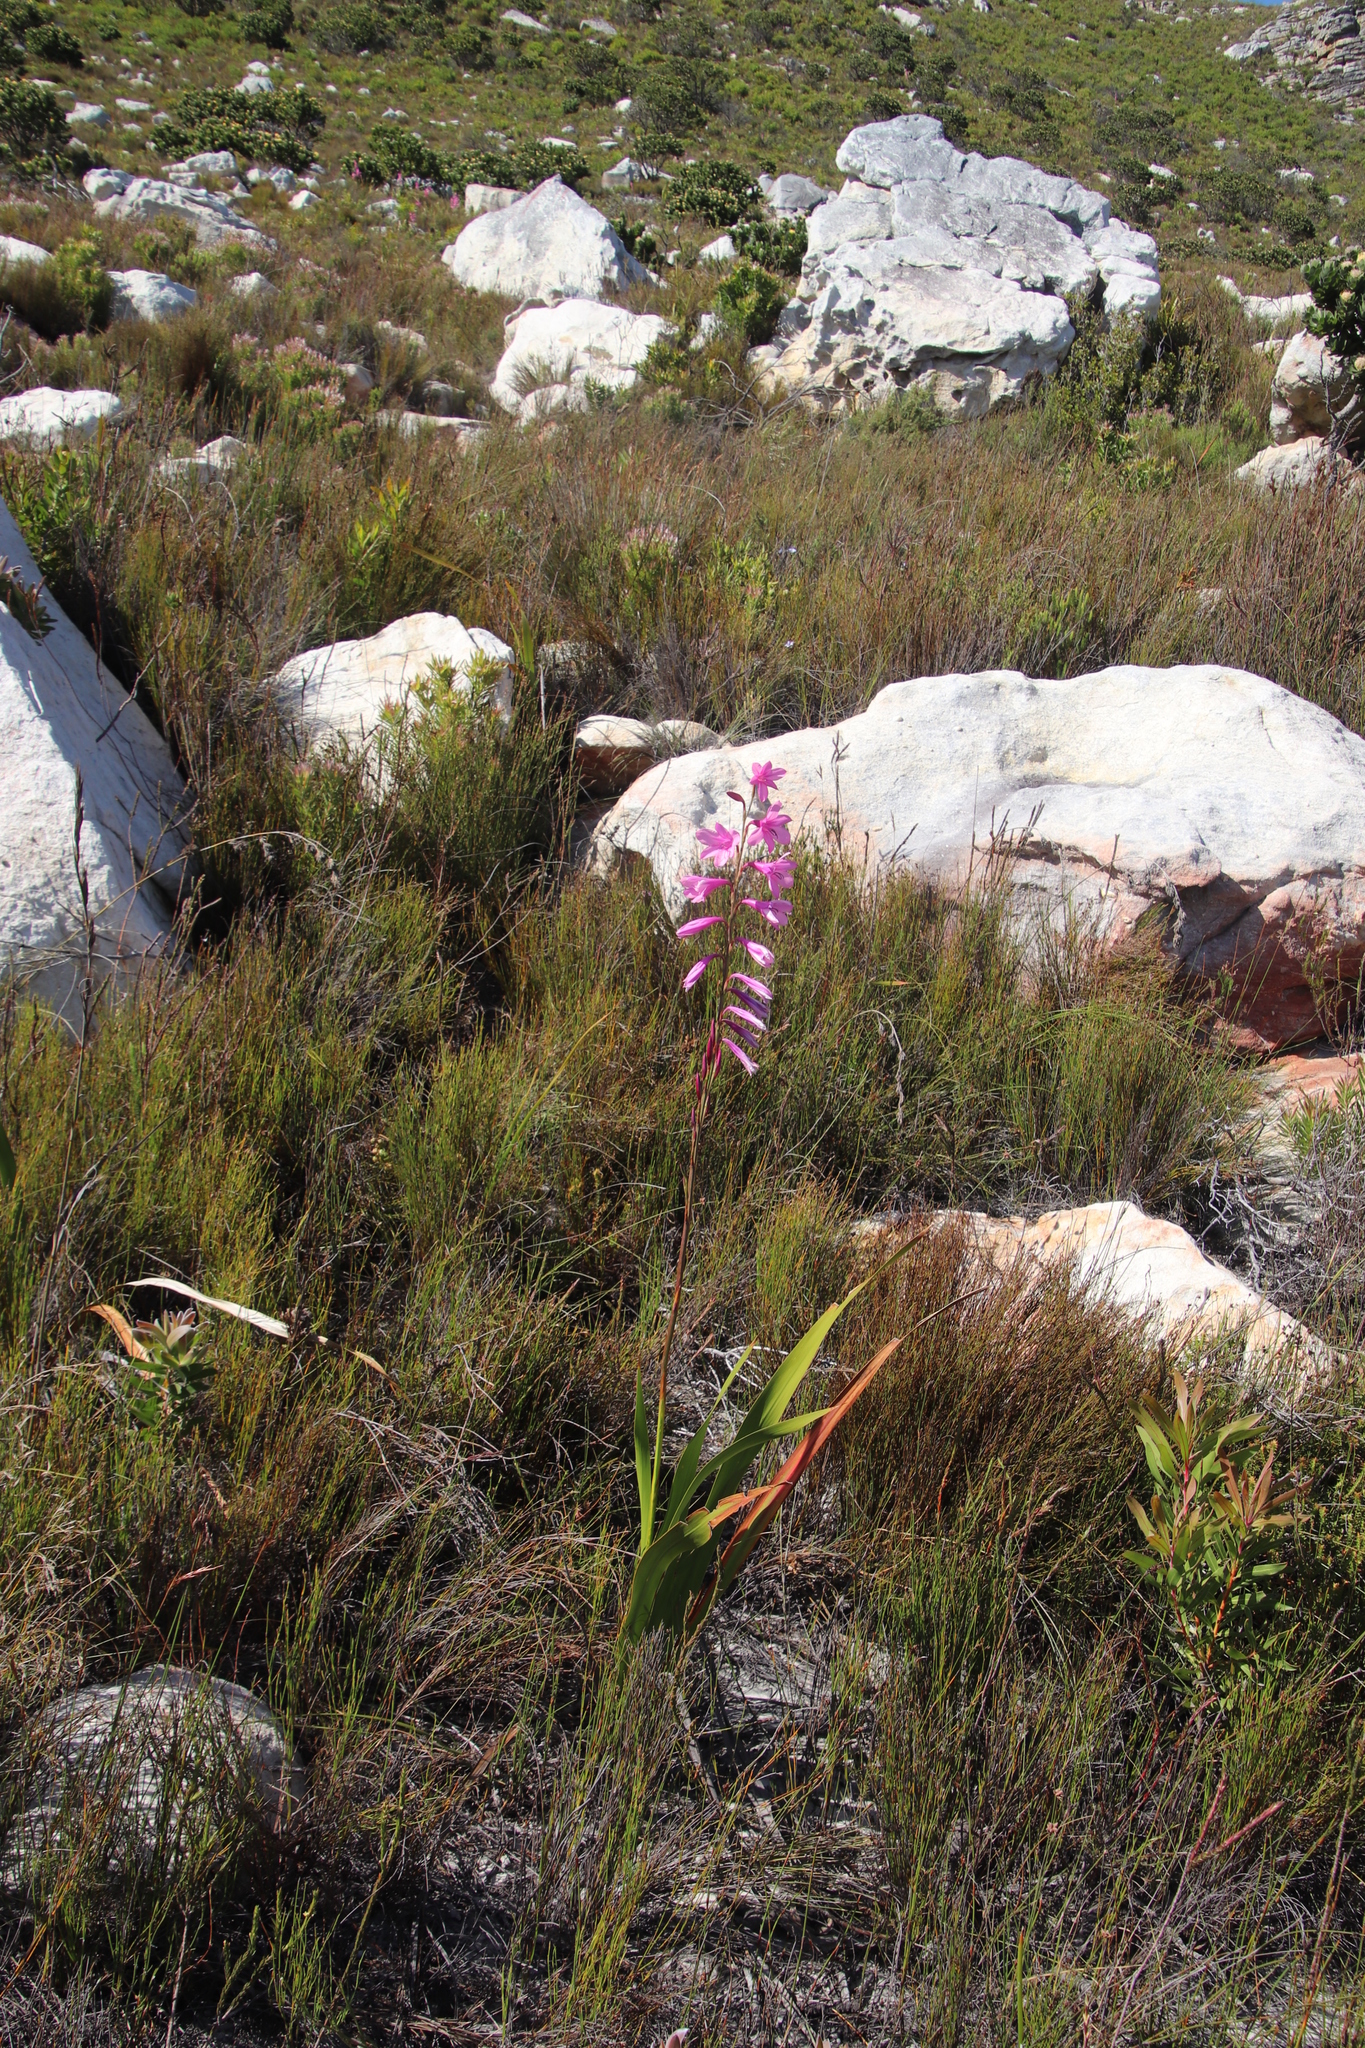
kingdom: Plantae
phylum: Tracheophyta
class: Liliopsida
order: Asparagales
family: Iridaceae
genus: Watsonia
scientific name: Watsonia borbonica
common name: Bugle-lily
